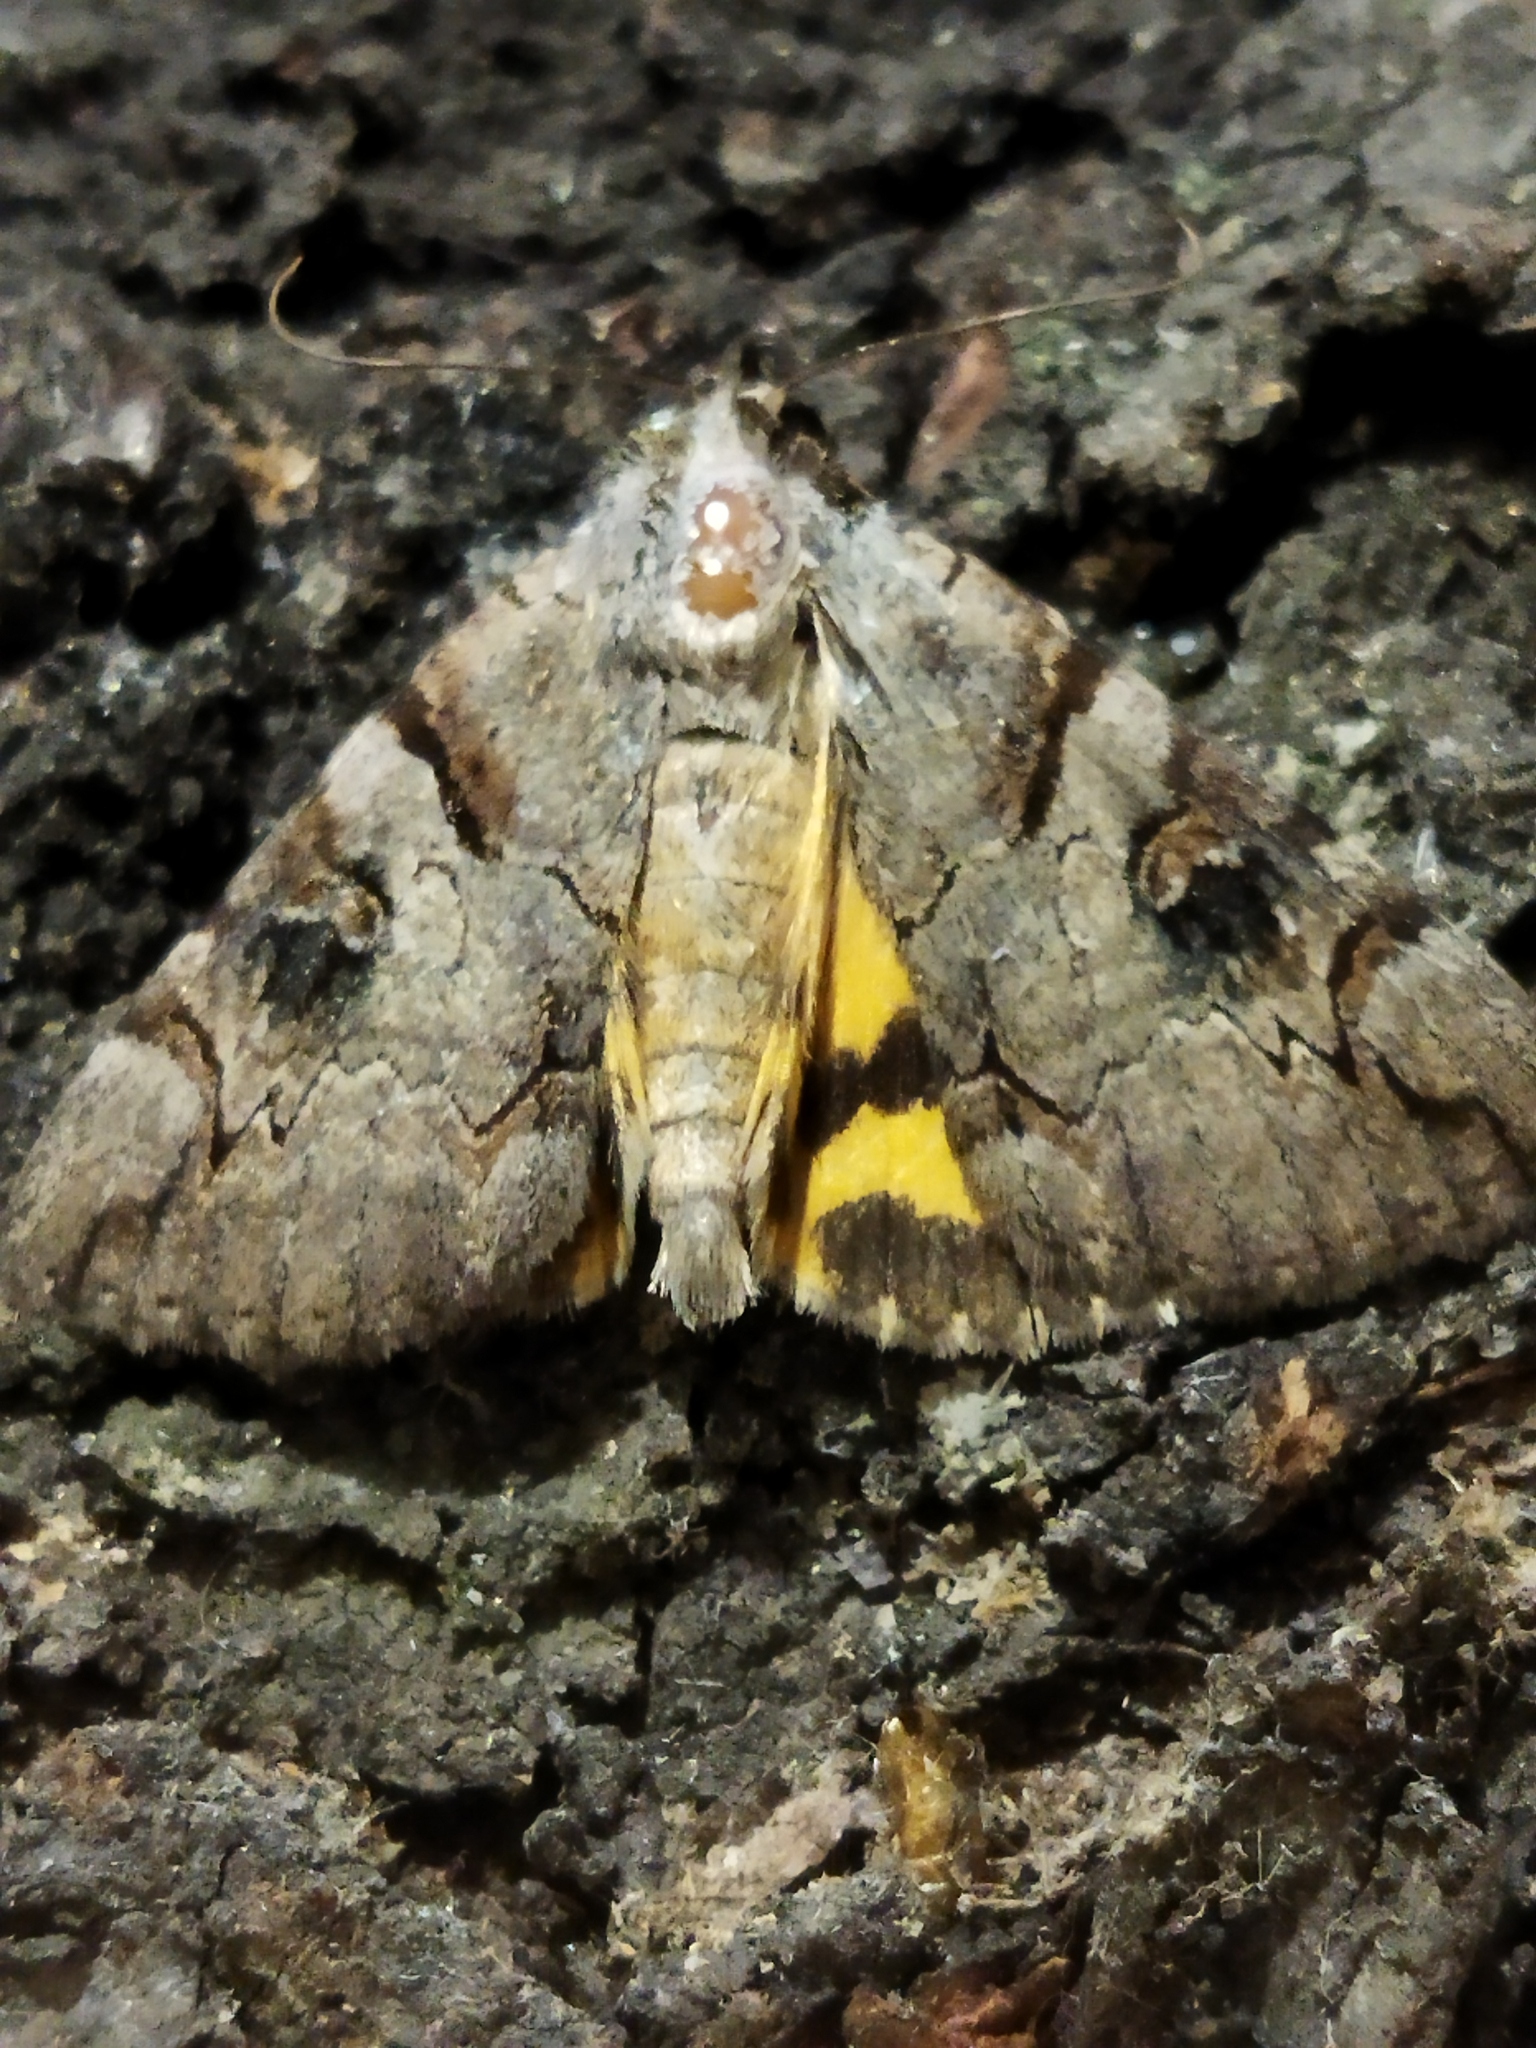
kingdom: Animalia
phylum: Arthropoda
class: Insecta
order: Lepidoptera
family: Erebidae
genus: Catocala
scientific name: Catocala hymenaea
